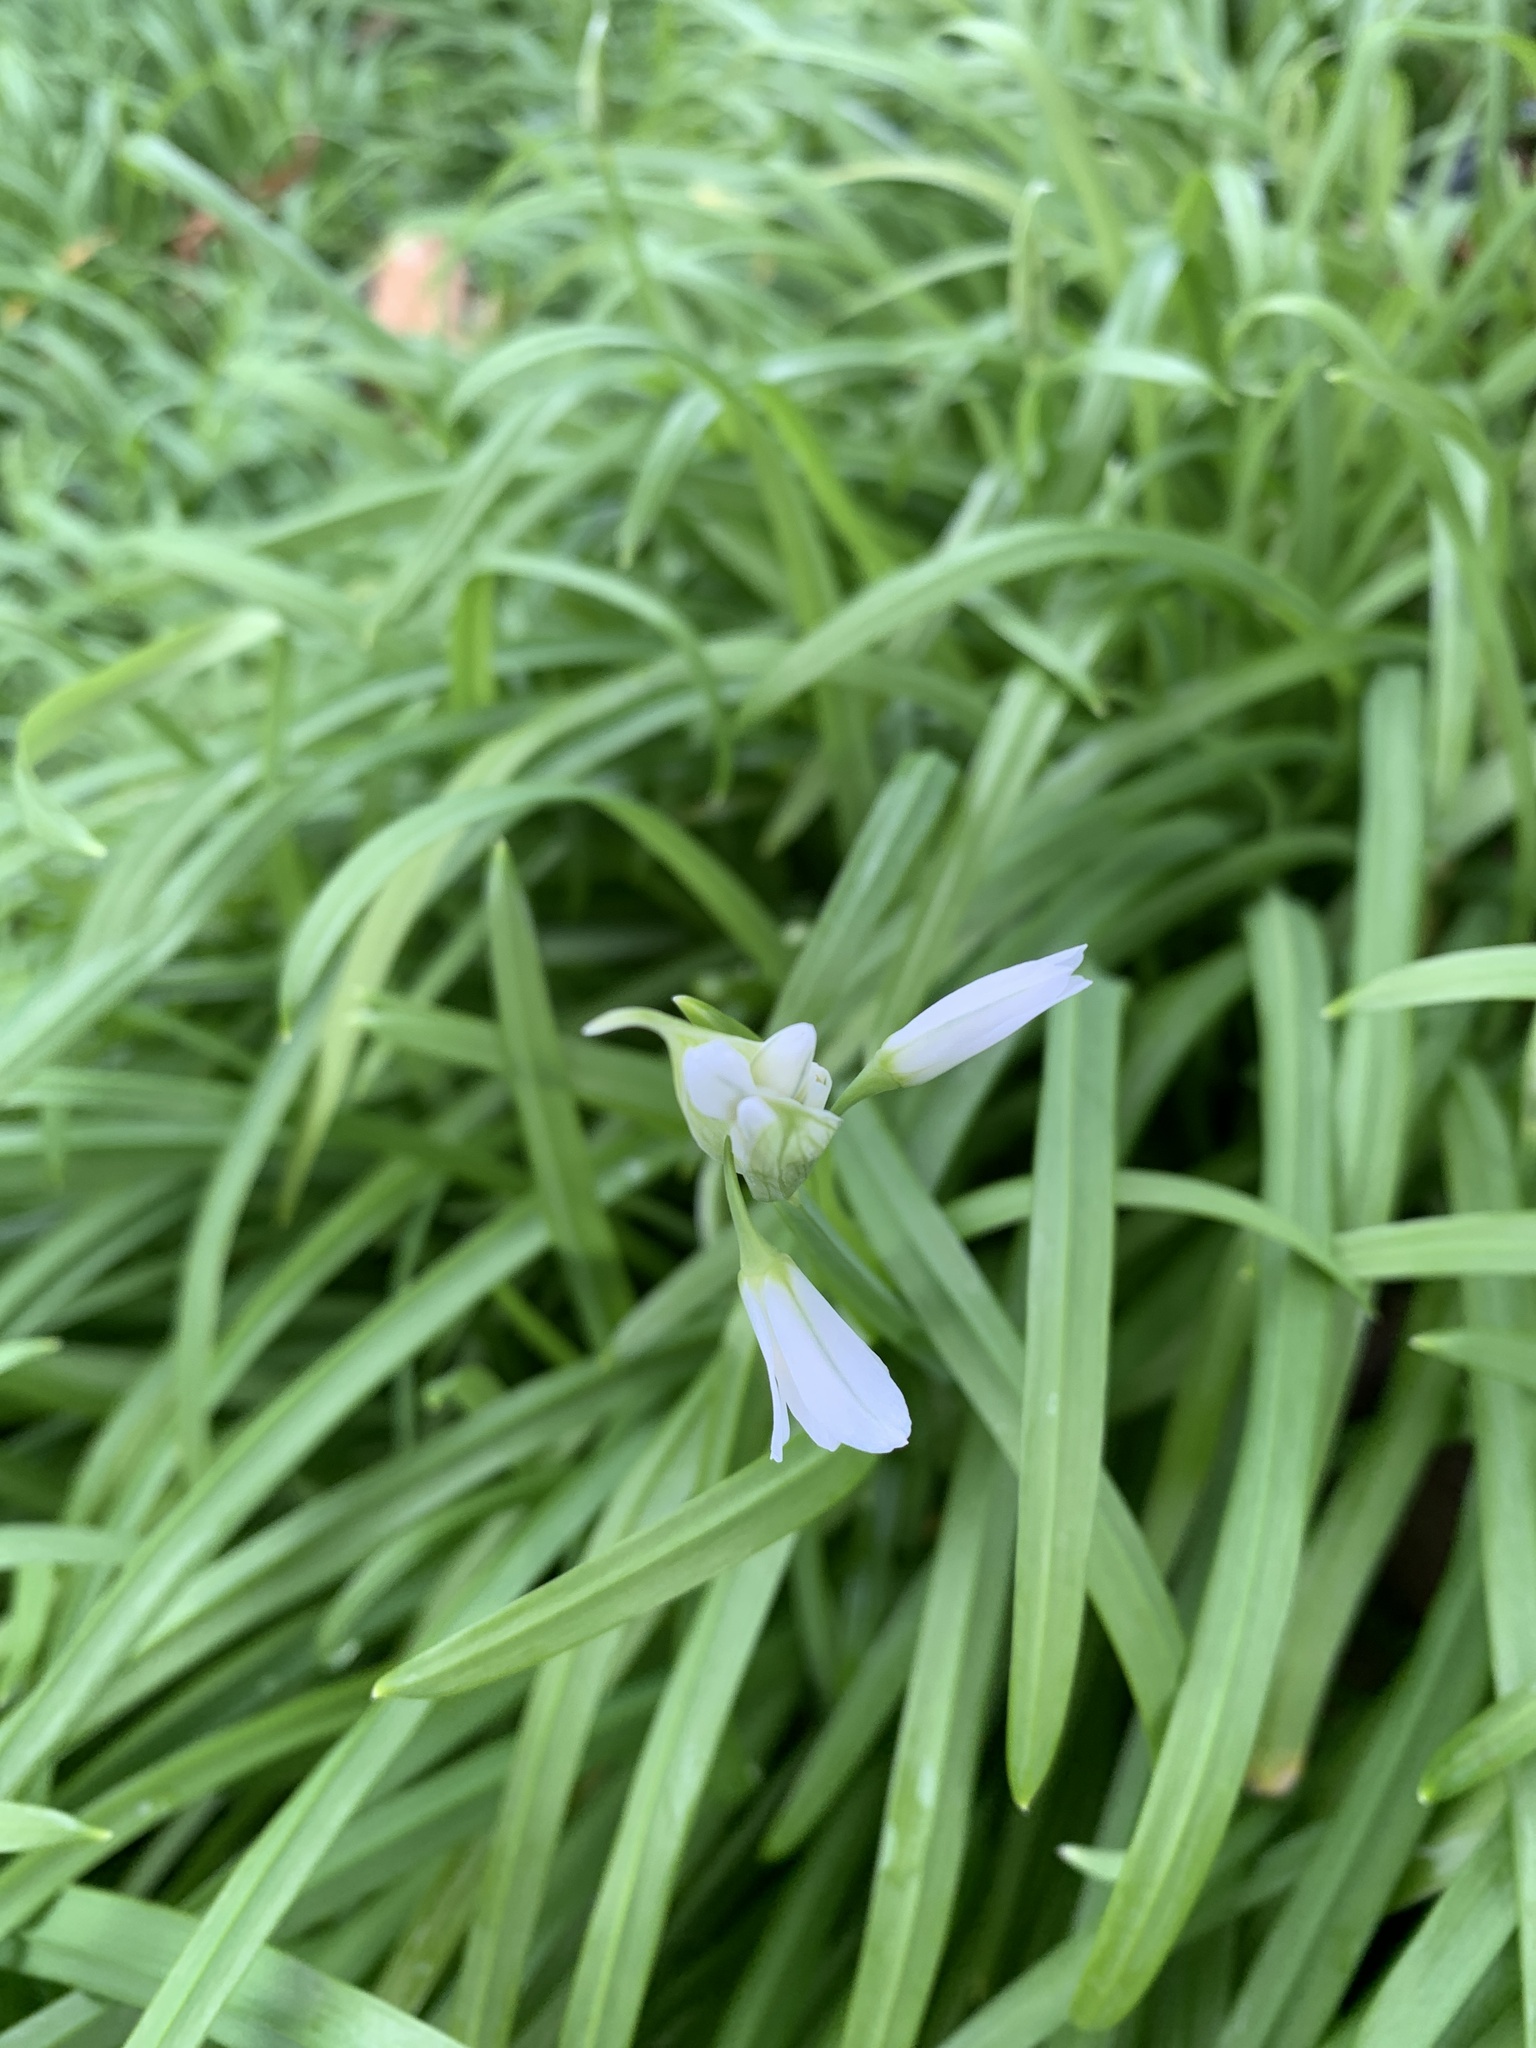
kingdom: Plantae
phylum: Tracheophyta
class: Liliopsida
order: Asparagales
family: Amaryllidaceae
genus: Allium
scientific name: Allium triquetrum
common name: Three-cornered garlic
